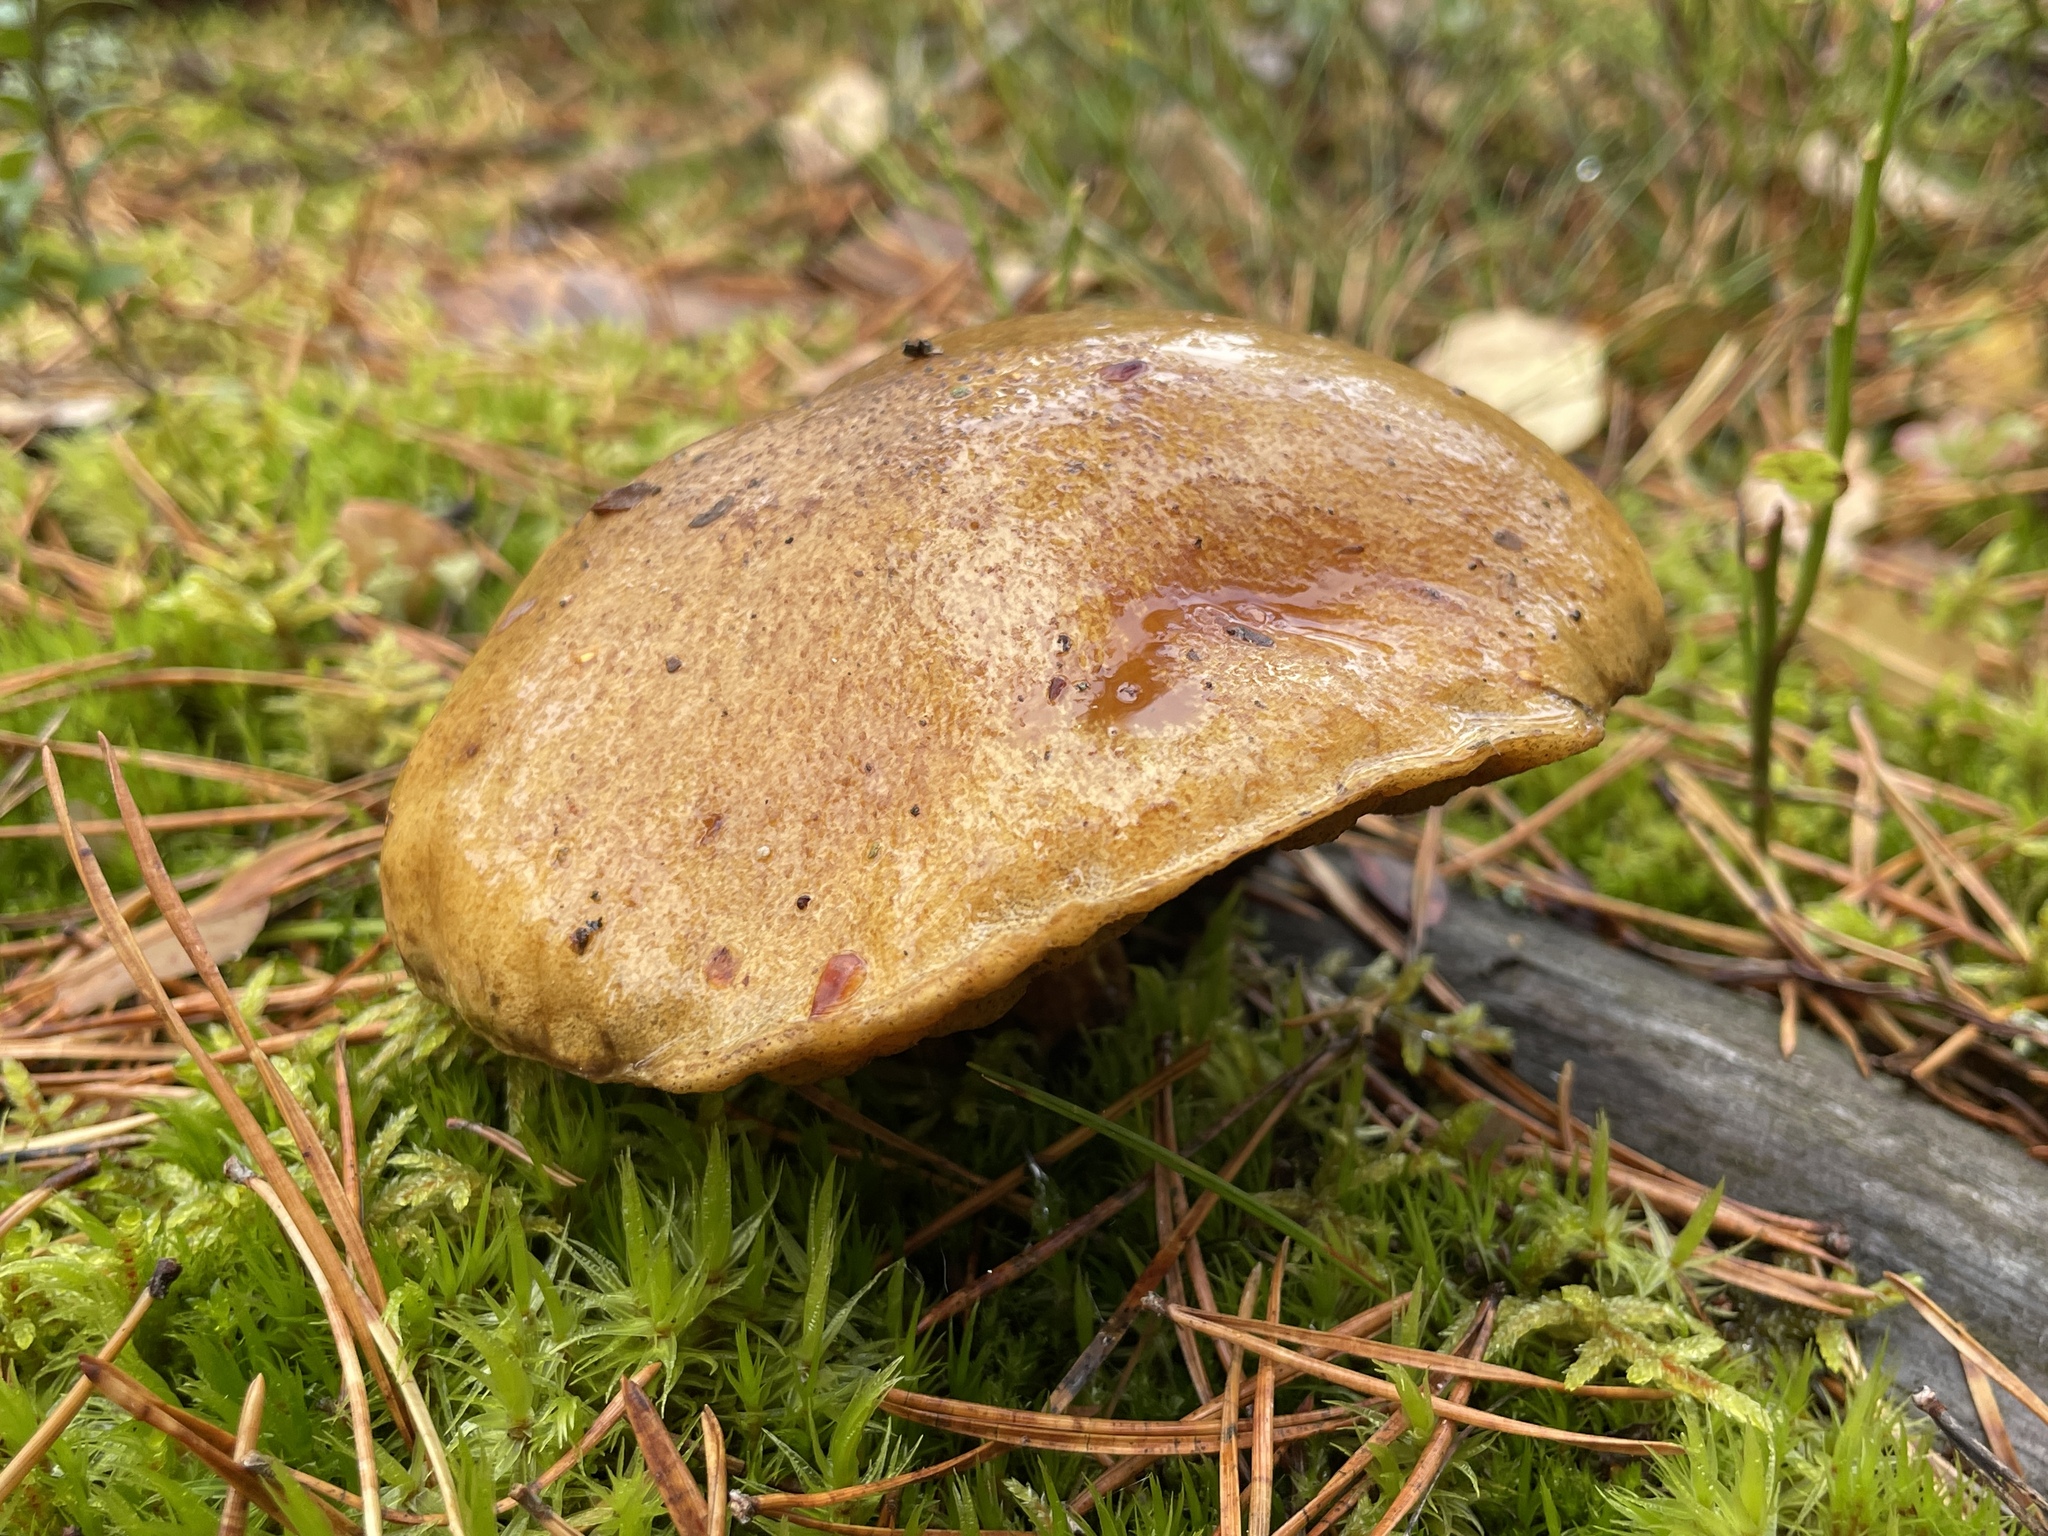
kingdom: Fungi
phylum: Basidiomycota
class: Agaricomycetes
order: Boletales
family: Suillaceae
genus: Suillus
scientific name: Suillus variegatus
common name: Velvet bolete
